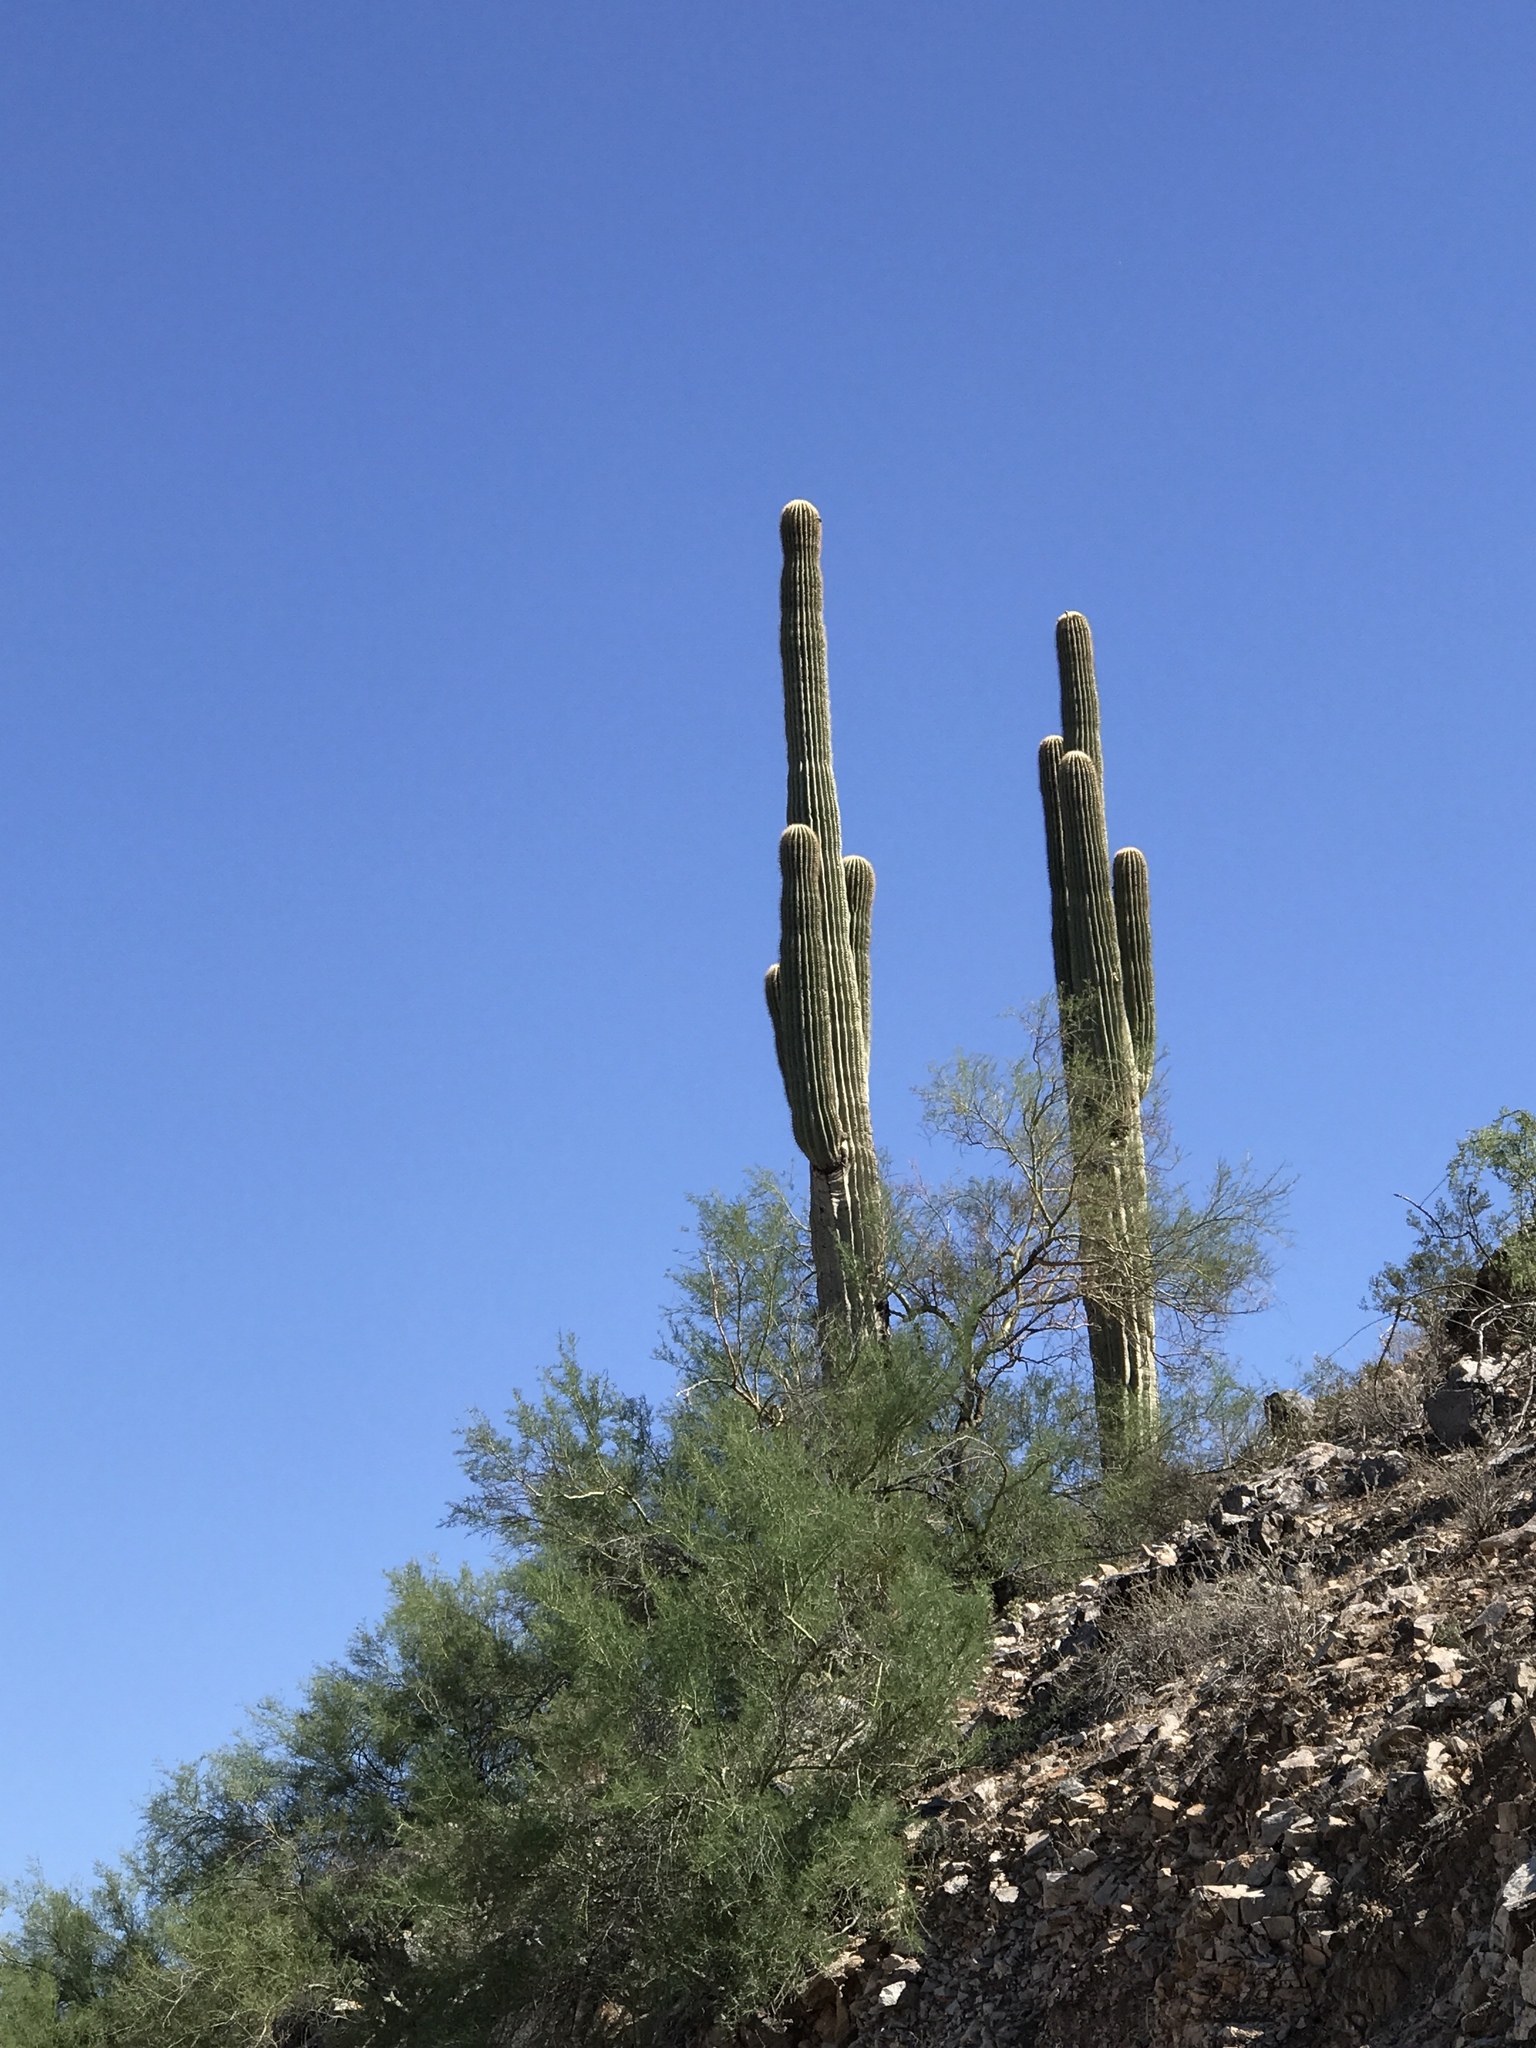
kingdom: Plantae
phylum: Tracheophyta
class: Magnoliopsida
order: Caryophyllales
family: Cactaceae
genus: Carnegiea
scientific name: Carnegiea gigantea
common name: Saguaro
